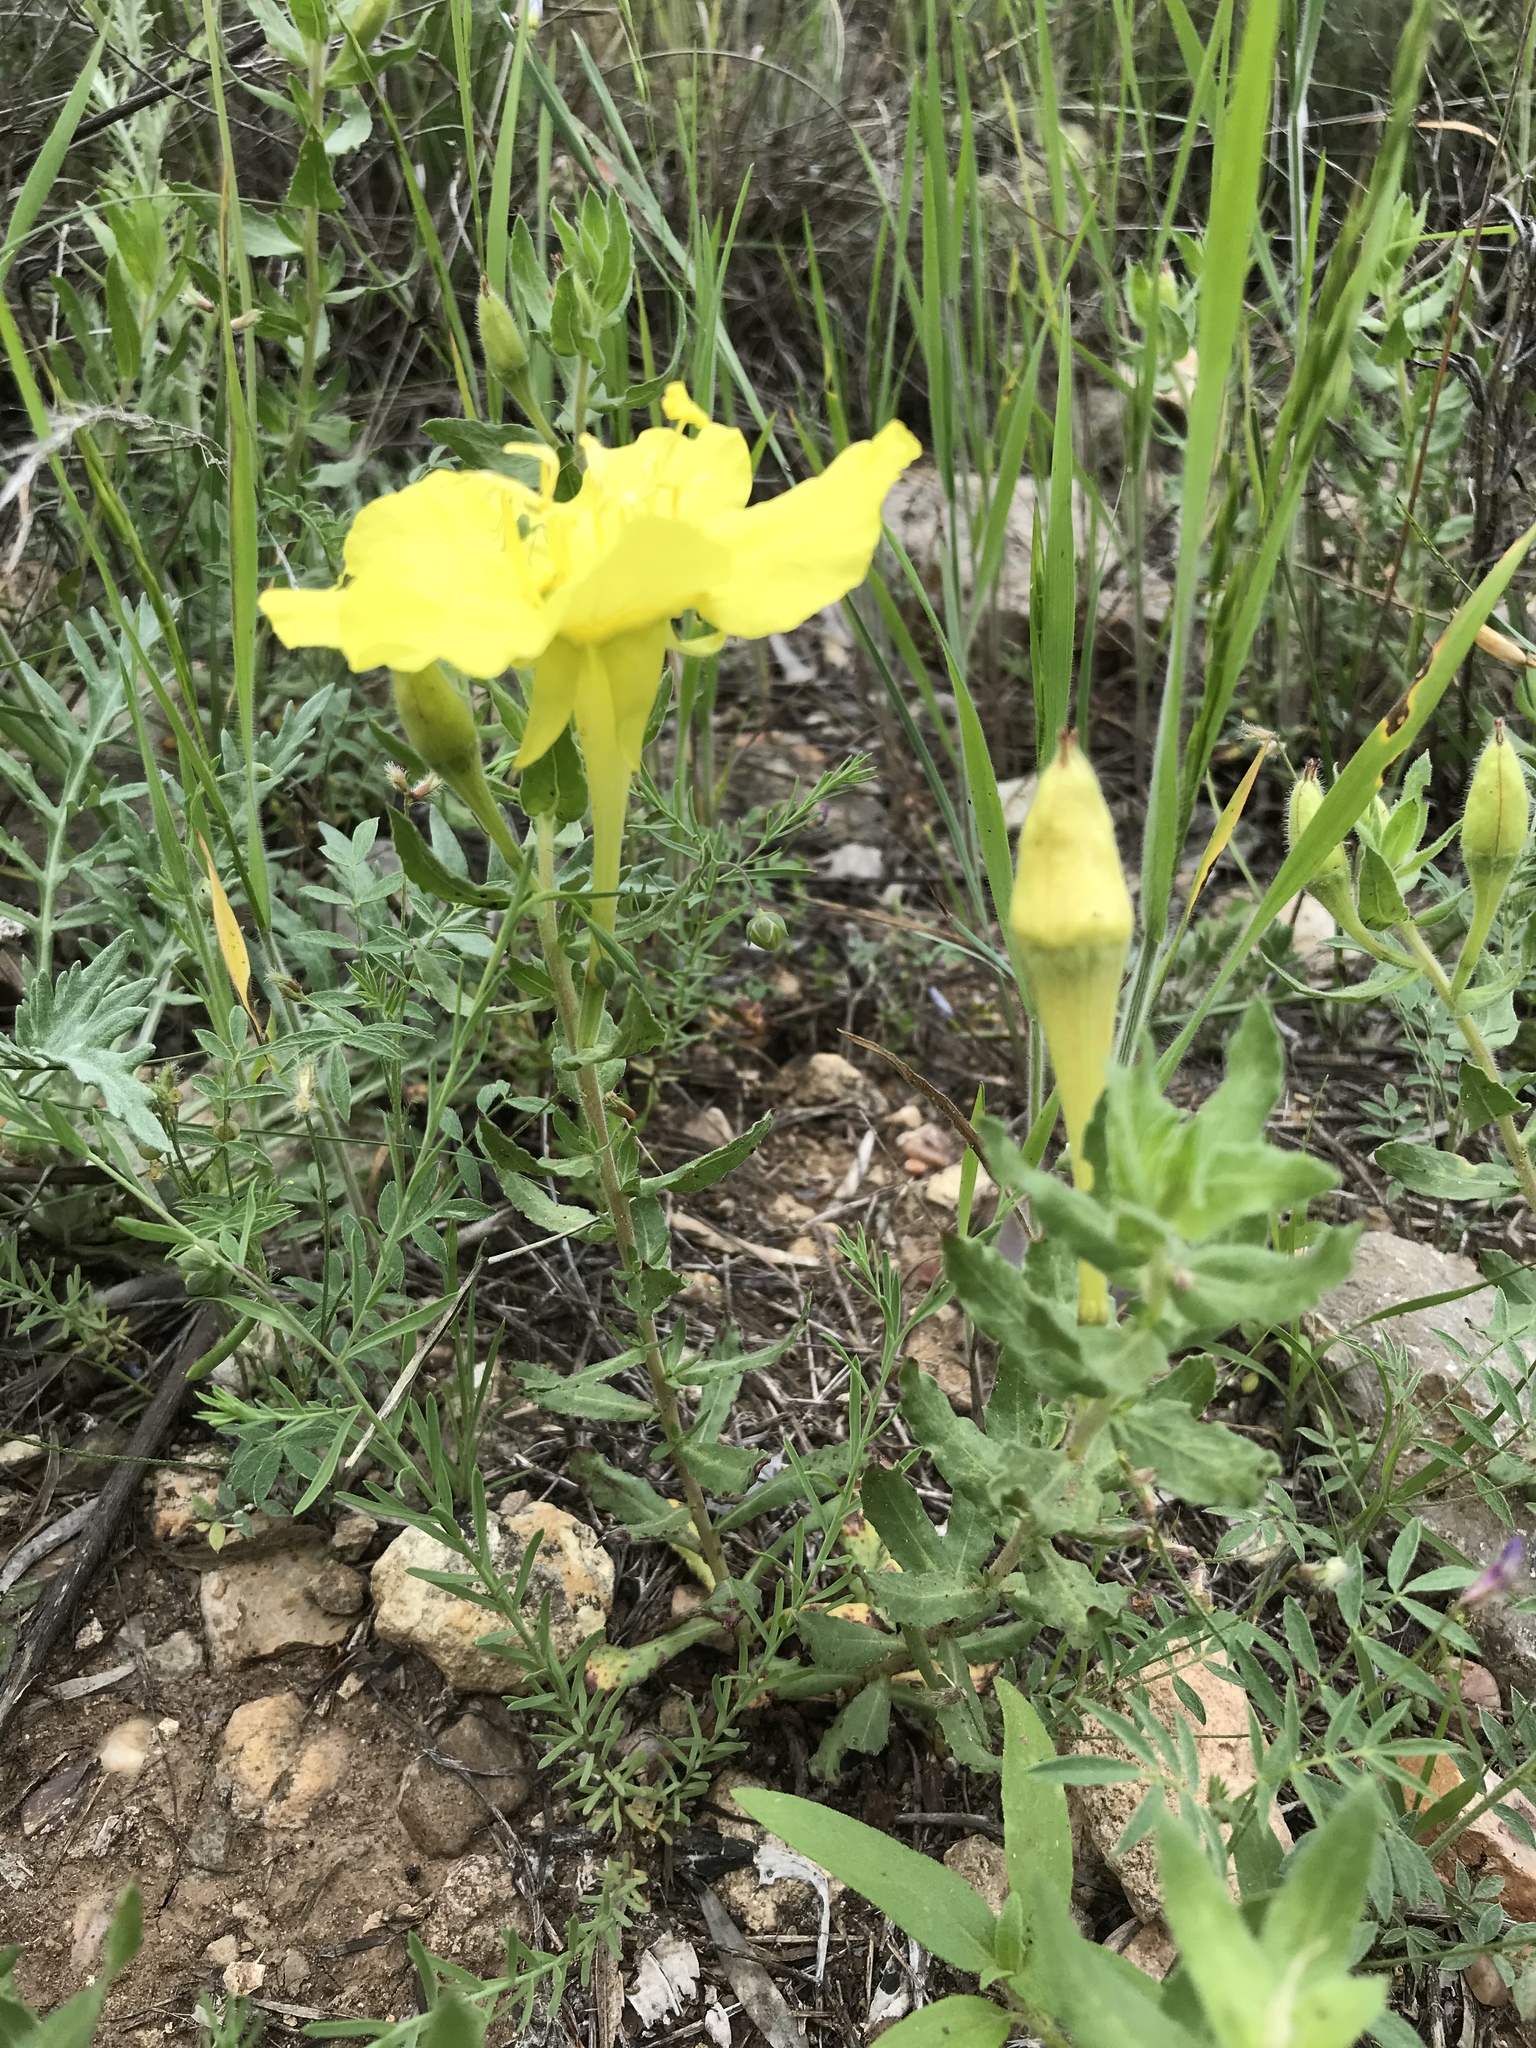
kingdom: Plantae
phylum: Tracheophyta
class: Magnoliopsida
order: Myrtales
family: Onagraceae
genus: Oenothera
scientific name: Oenothera hartwegii
